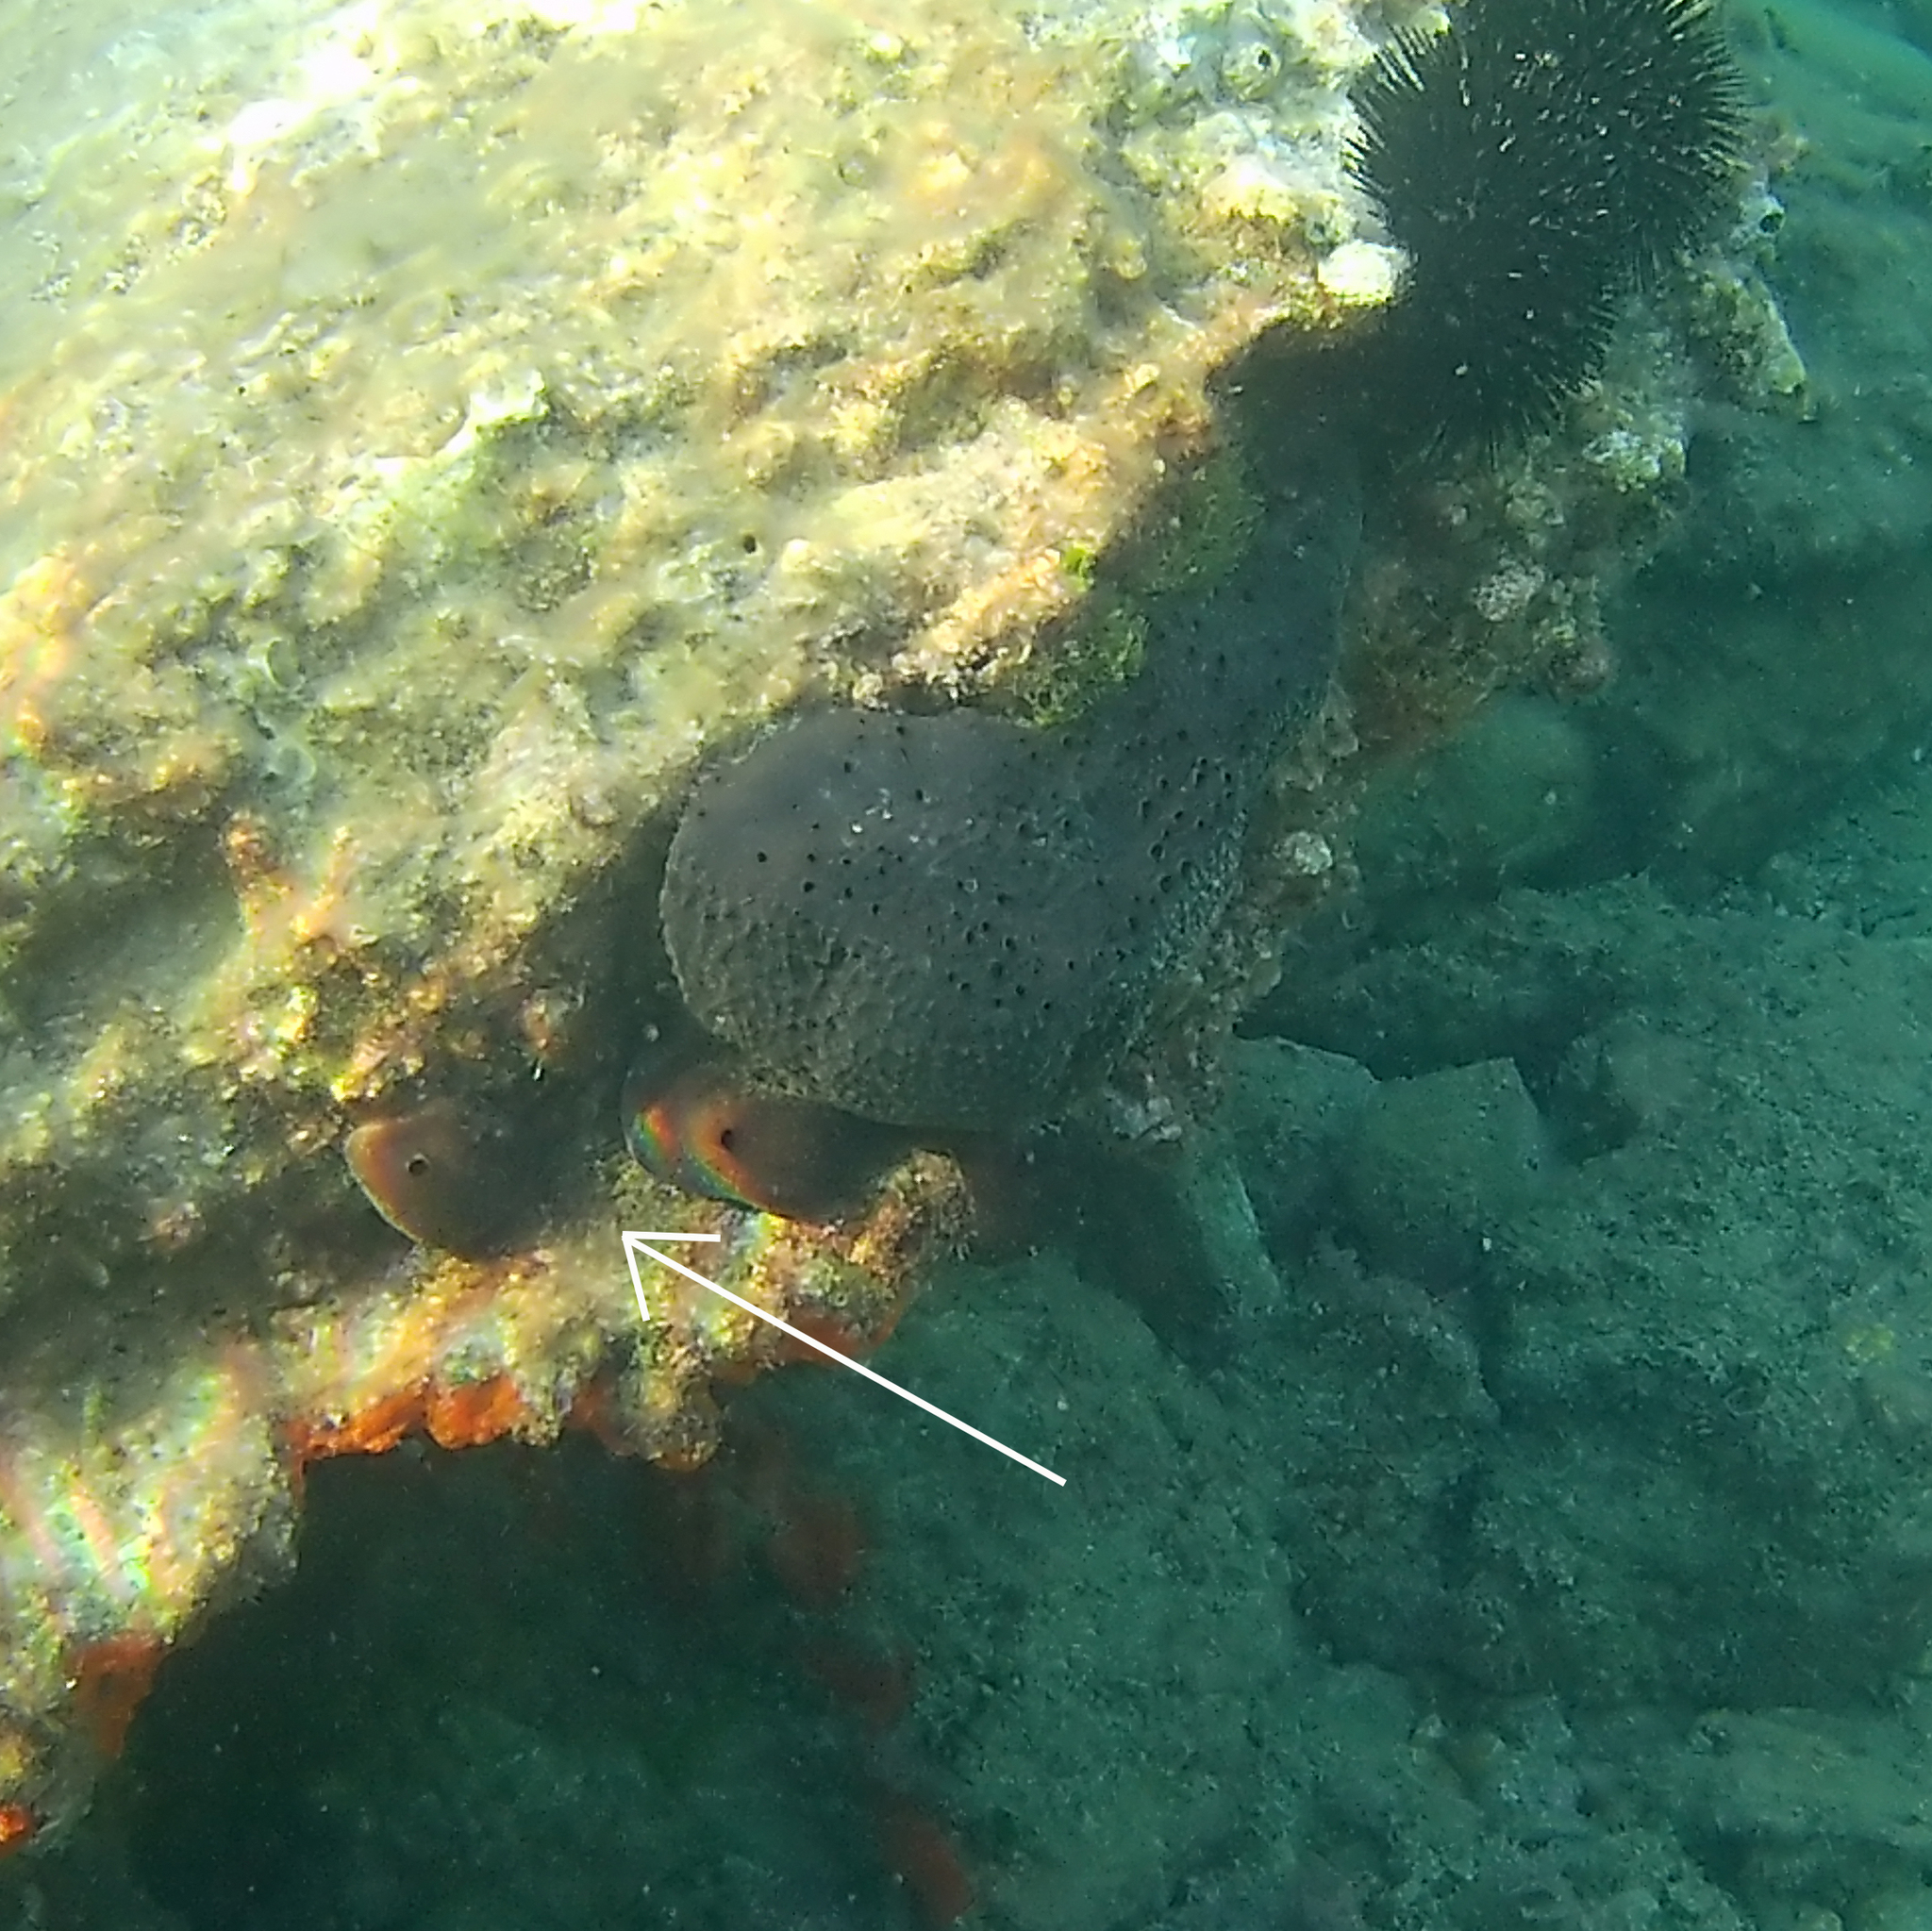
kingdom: Animalia
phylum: Porifera
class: Demospongiae
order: Chondrosiida
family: Chondrosiidae
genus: Chondrosia
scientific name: Chondrosia reniformis
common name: Chicken liver sponge
